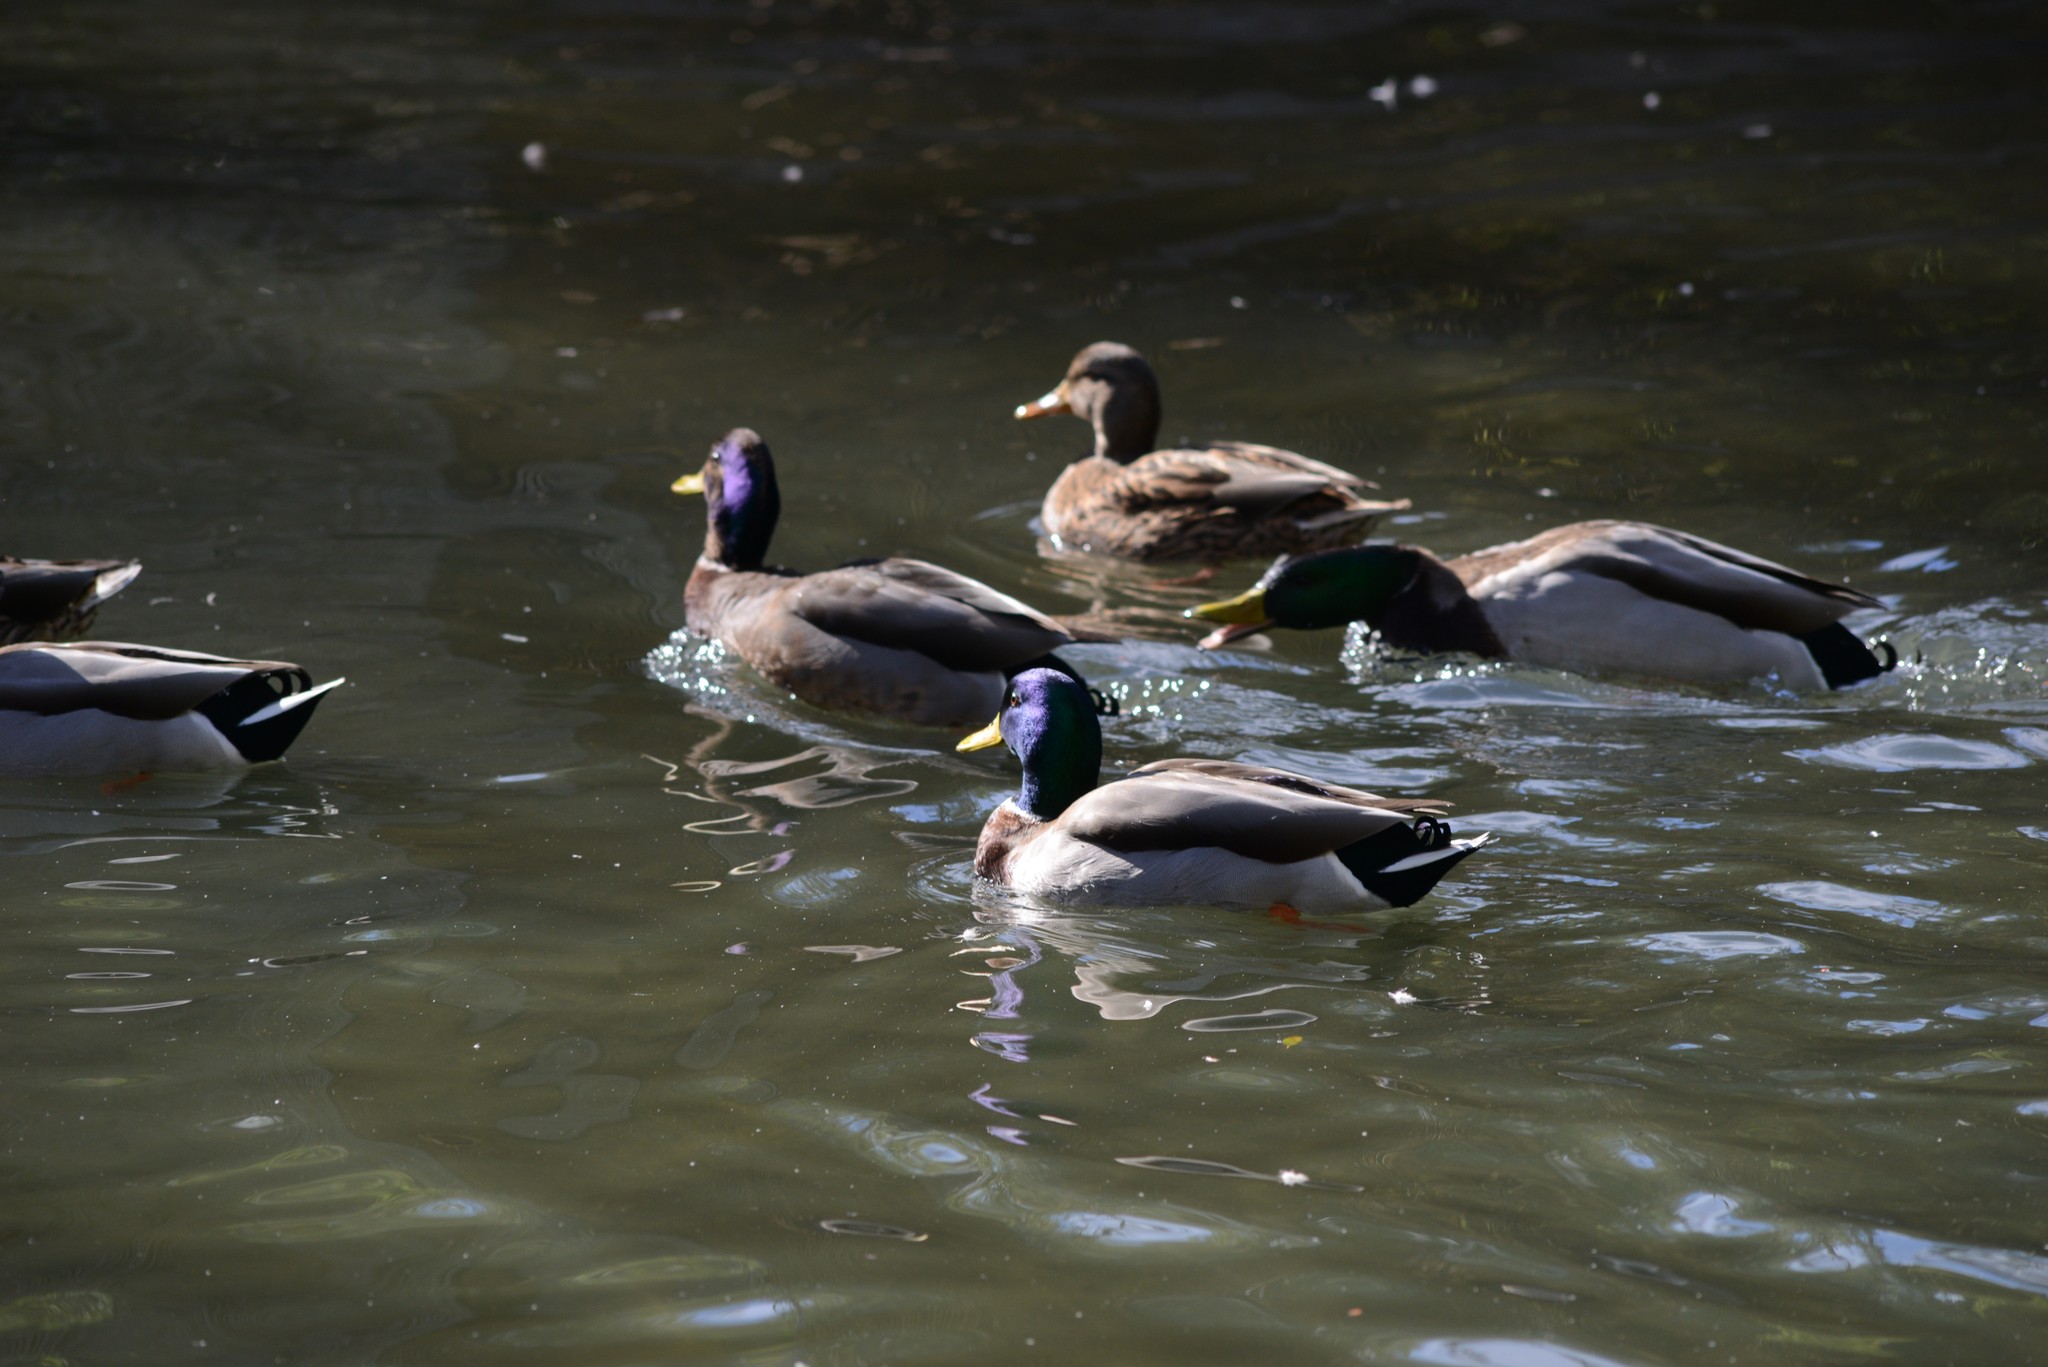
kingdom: Animalia
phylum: Chordata
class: Aves
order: Anseriformes
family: Anatidae
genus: Anas
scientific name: Anas platyrhynchos
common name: Mallard
